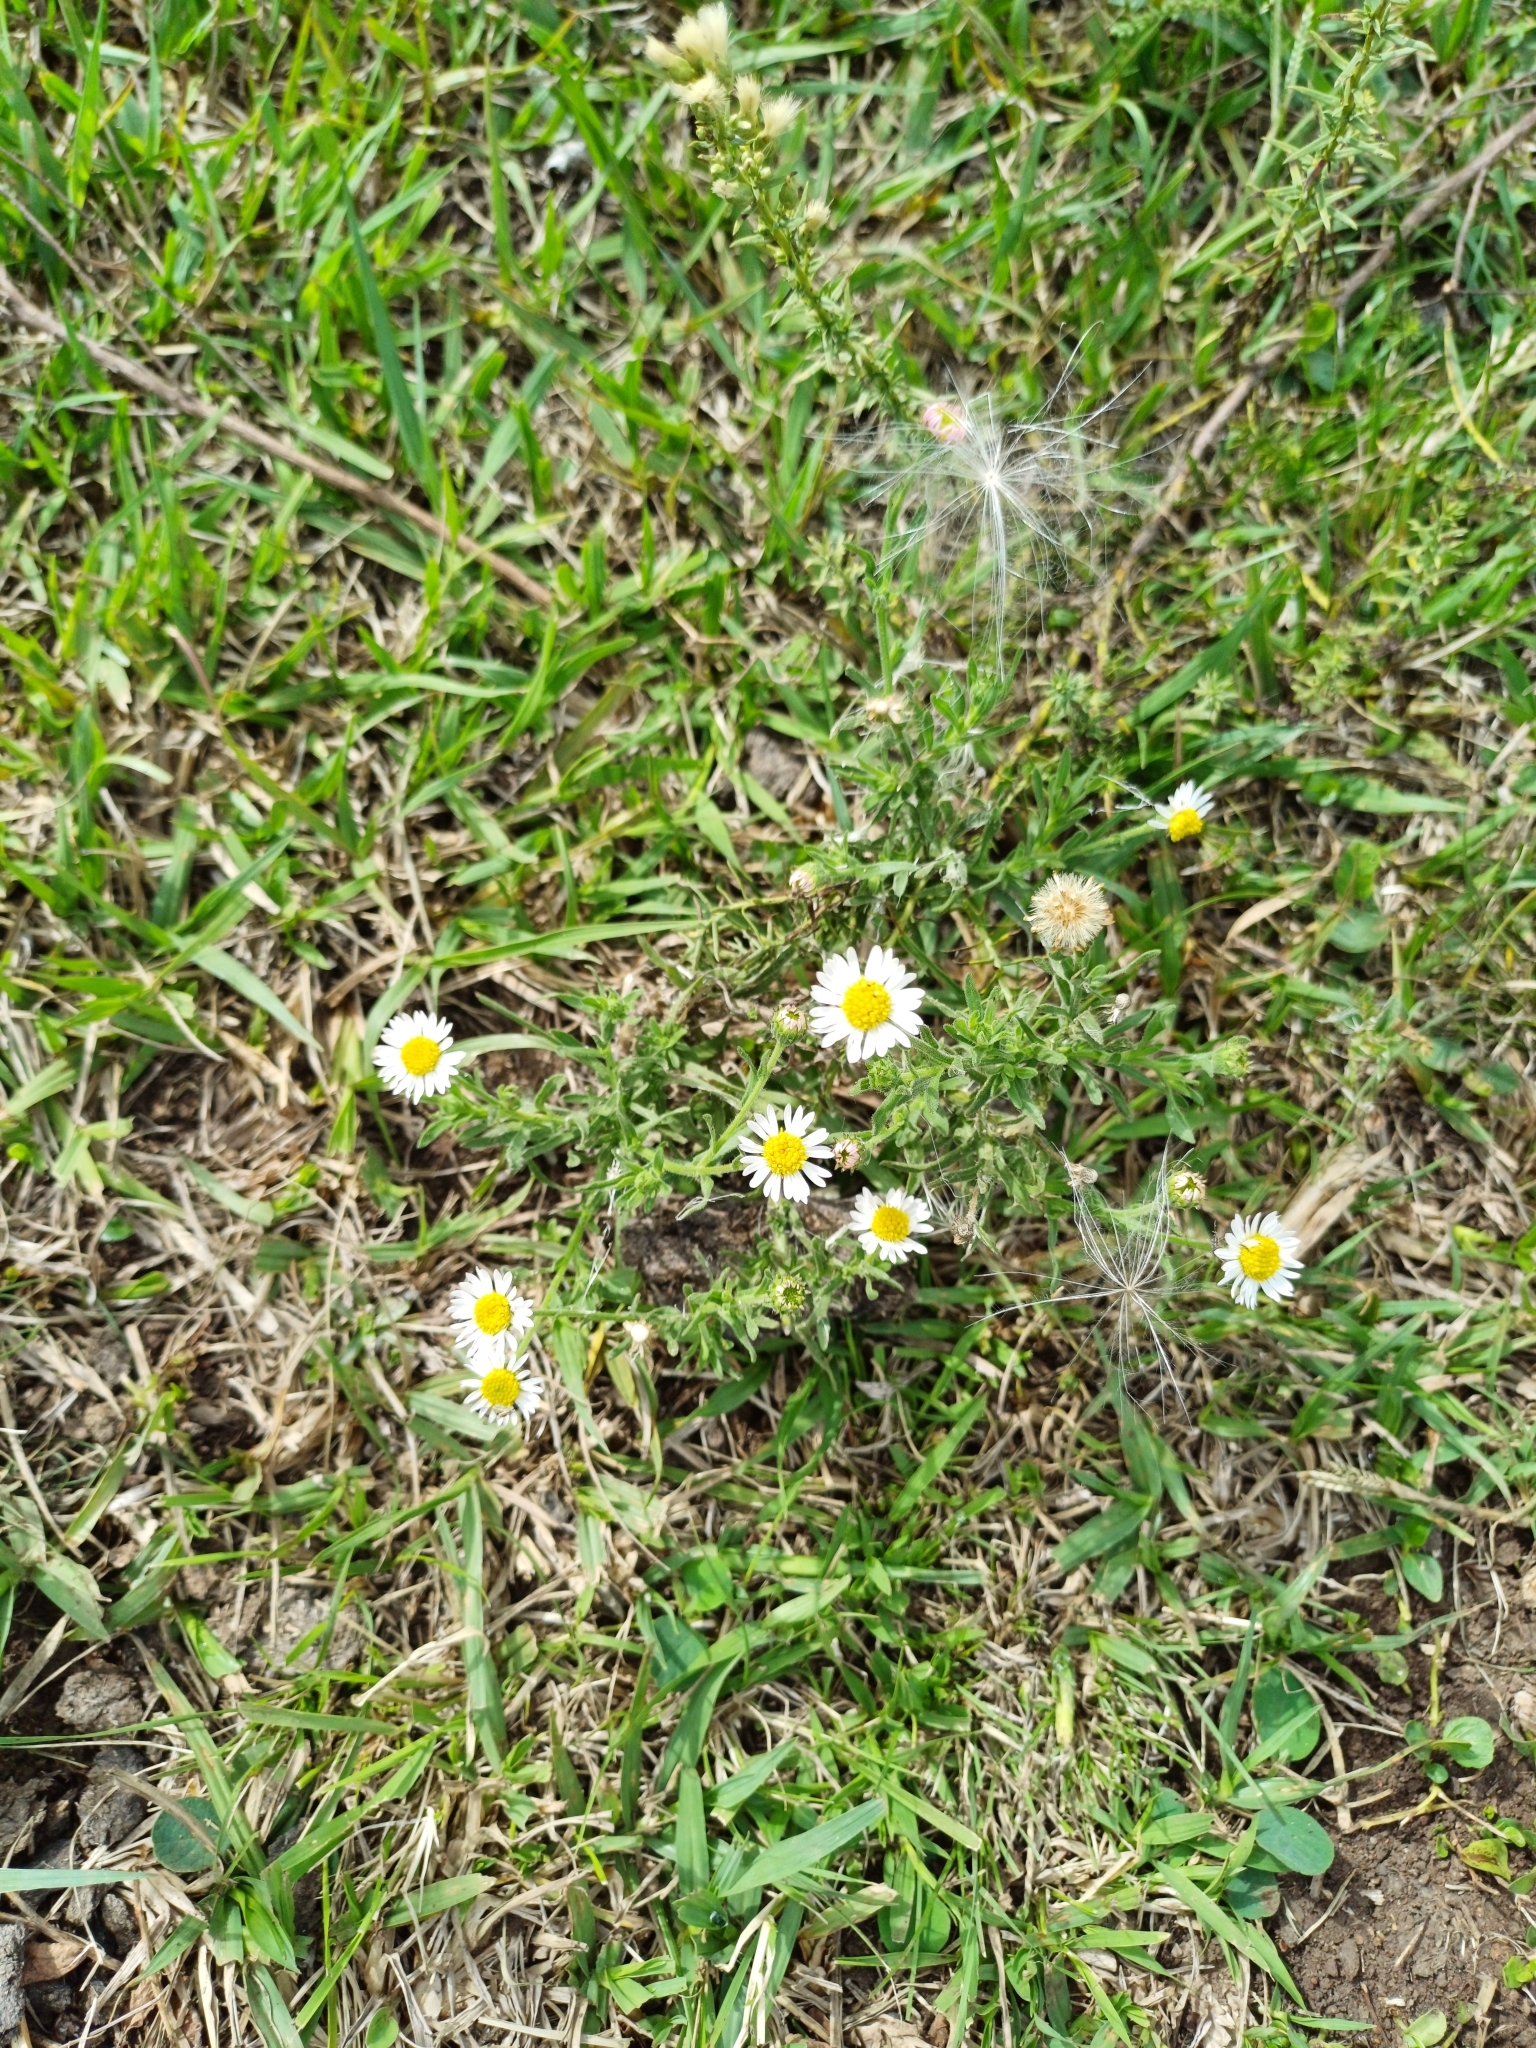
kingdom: Plantae
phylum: Tracheophyta
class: Magnoliopsida
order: Asterales
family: Asteraceae
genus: Hysterionica
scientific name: Hysterionica resinosa
